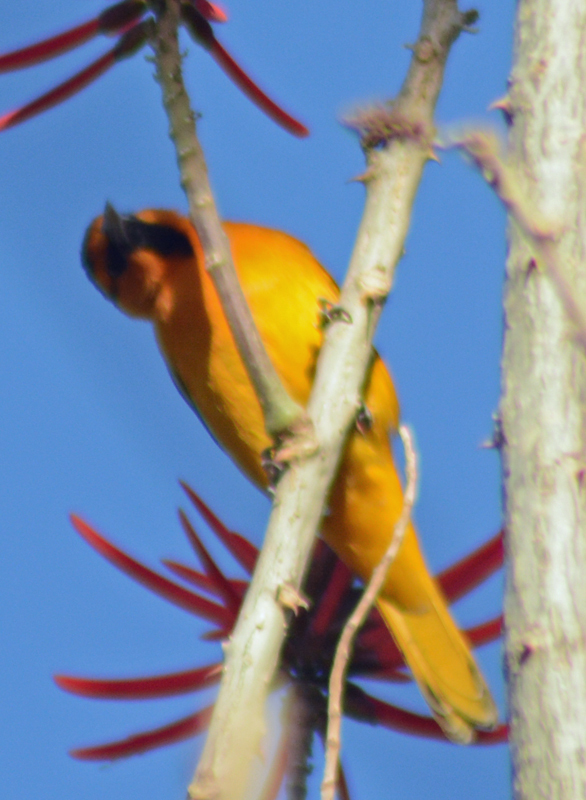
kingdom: Animalia
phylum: Chordata
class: Aves
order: Passeriformes
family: Icteridae
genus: Icterus
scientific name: Icterus bullockii
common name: Bullock's oriole
